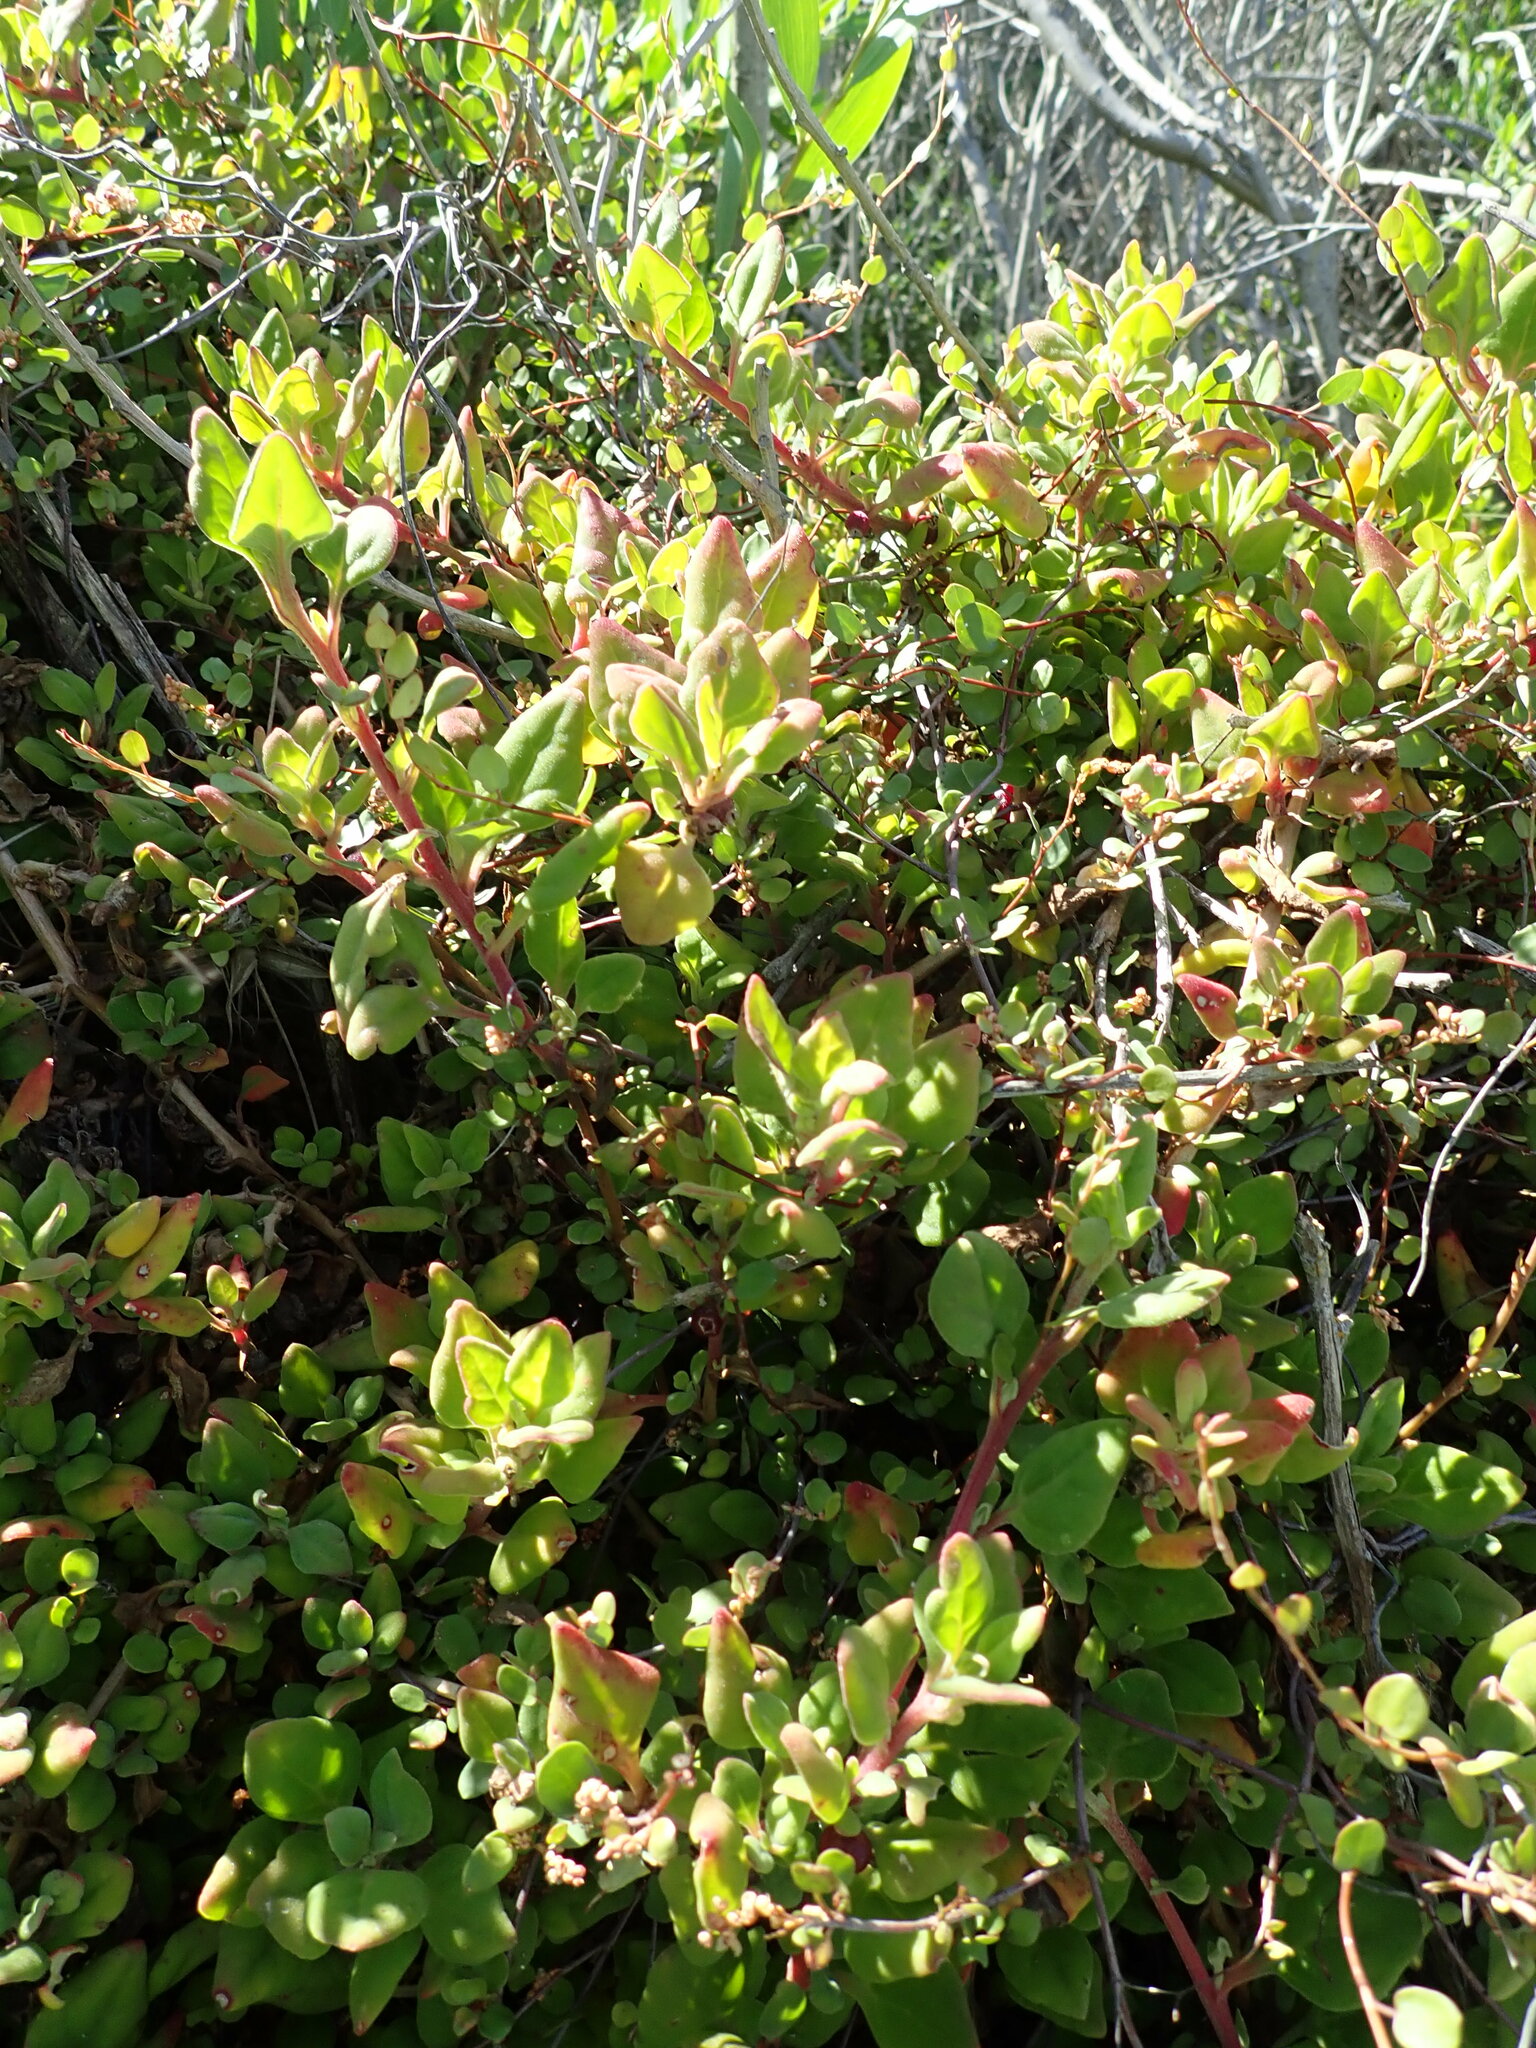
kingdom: Plantae
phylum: Tracheophyta
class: Magnoliopsida
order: Caryophyllales
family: Aizoaceae
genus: Tetragonia
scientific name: Tetragonia implexicoma
